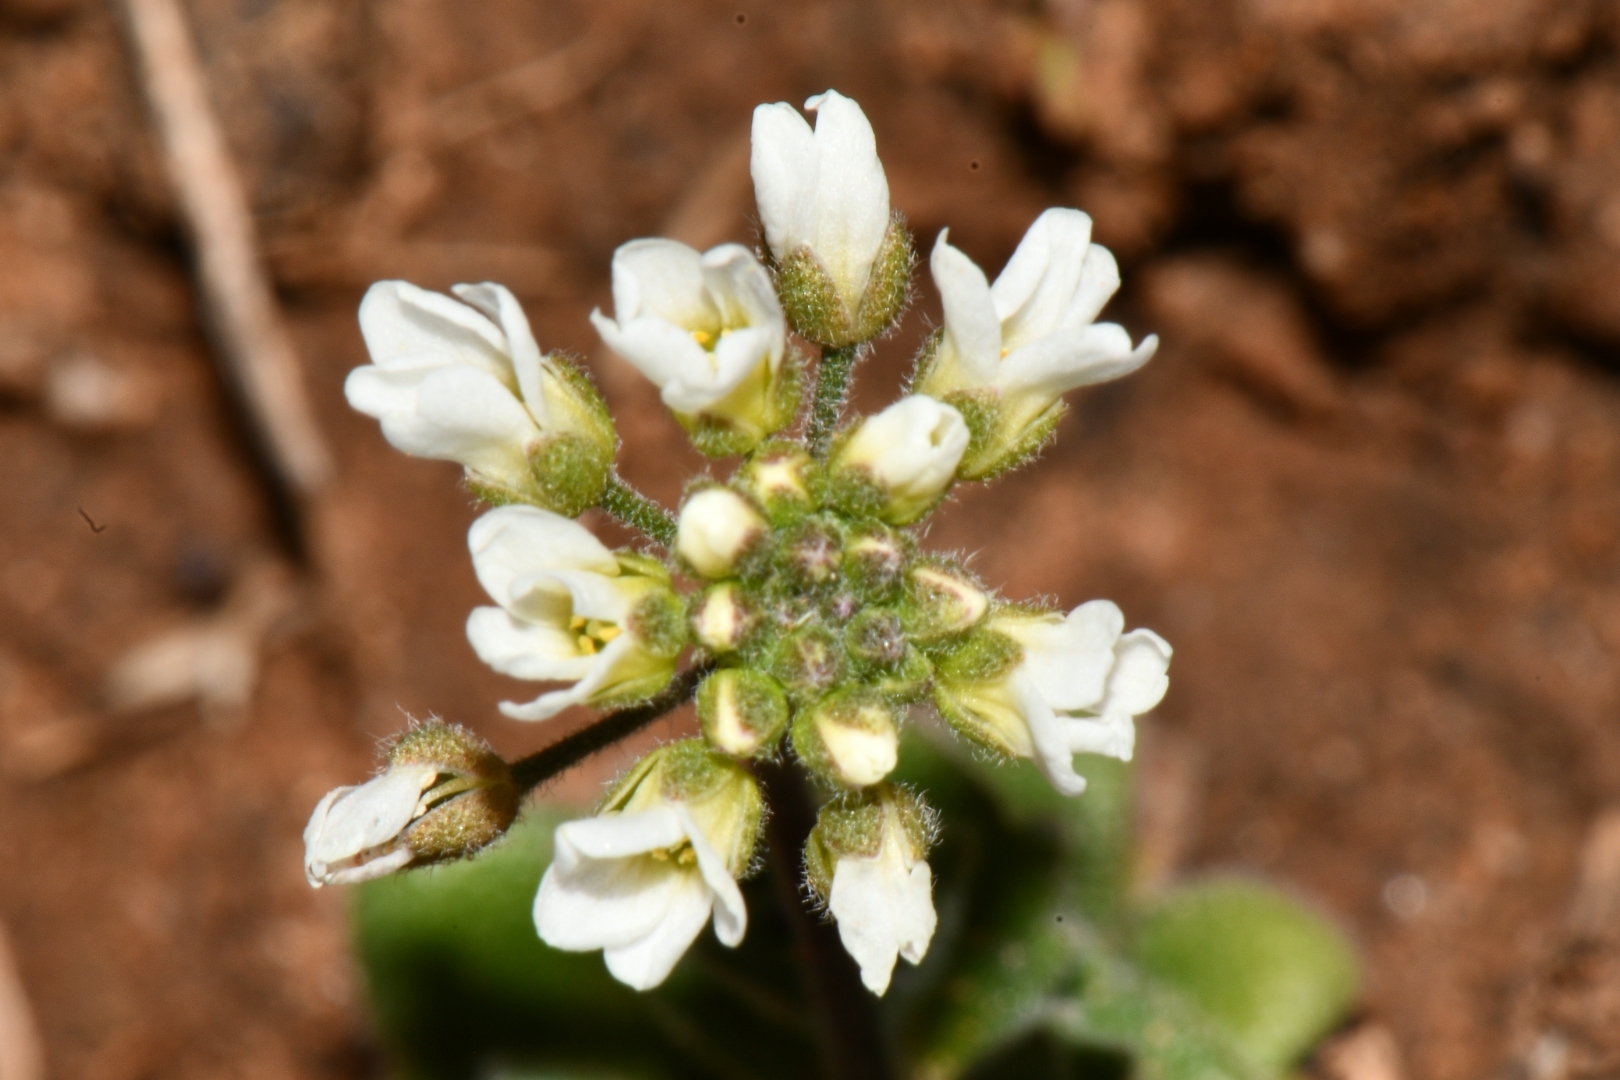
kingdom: Plantae
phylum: Tracheophyta
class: Magnoliopsida
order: Brassicales
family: Brassicaceae
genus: Tomostima
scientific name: Tomostima cuneifolia
